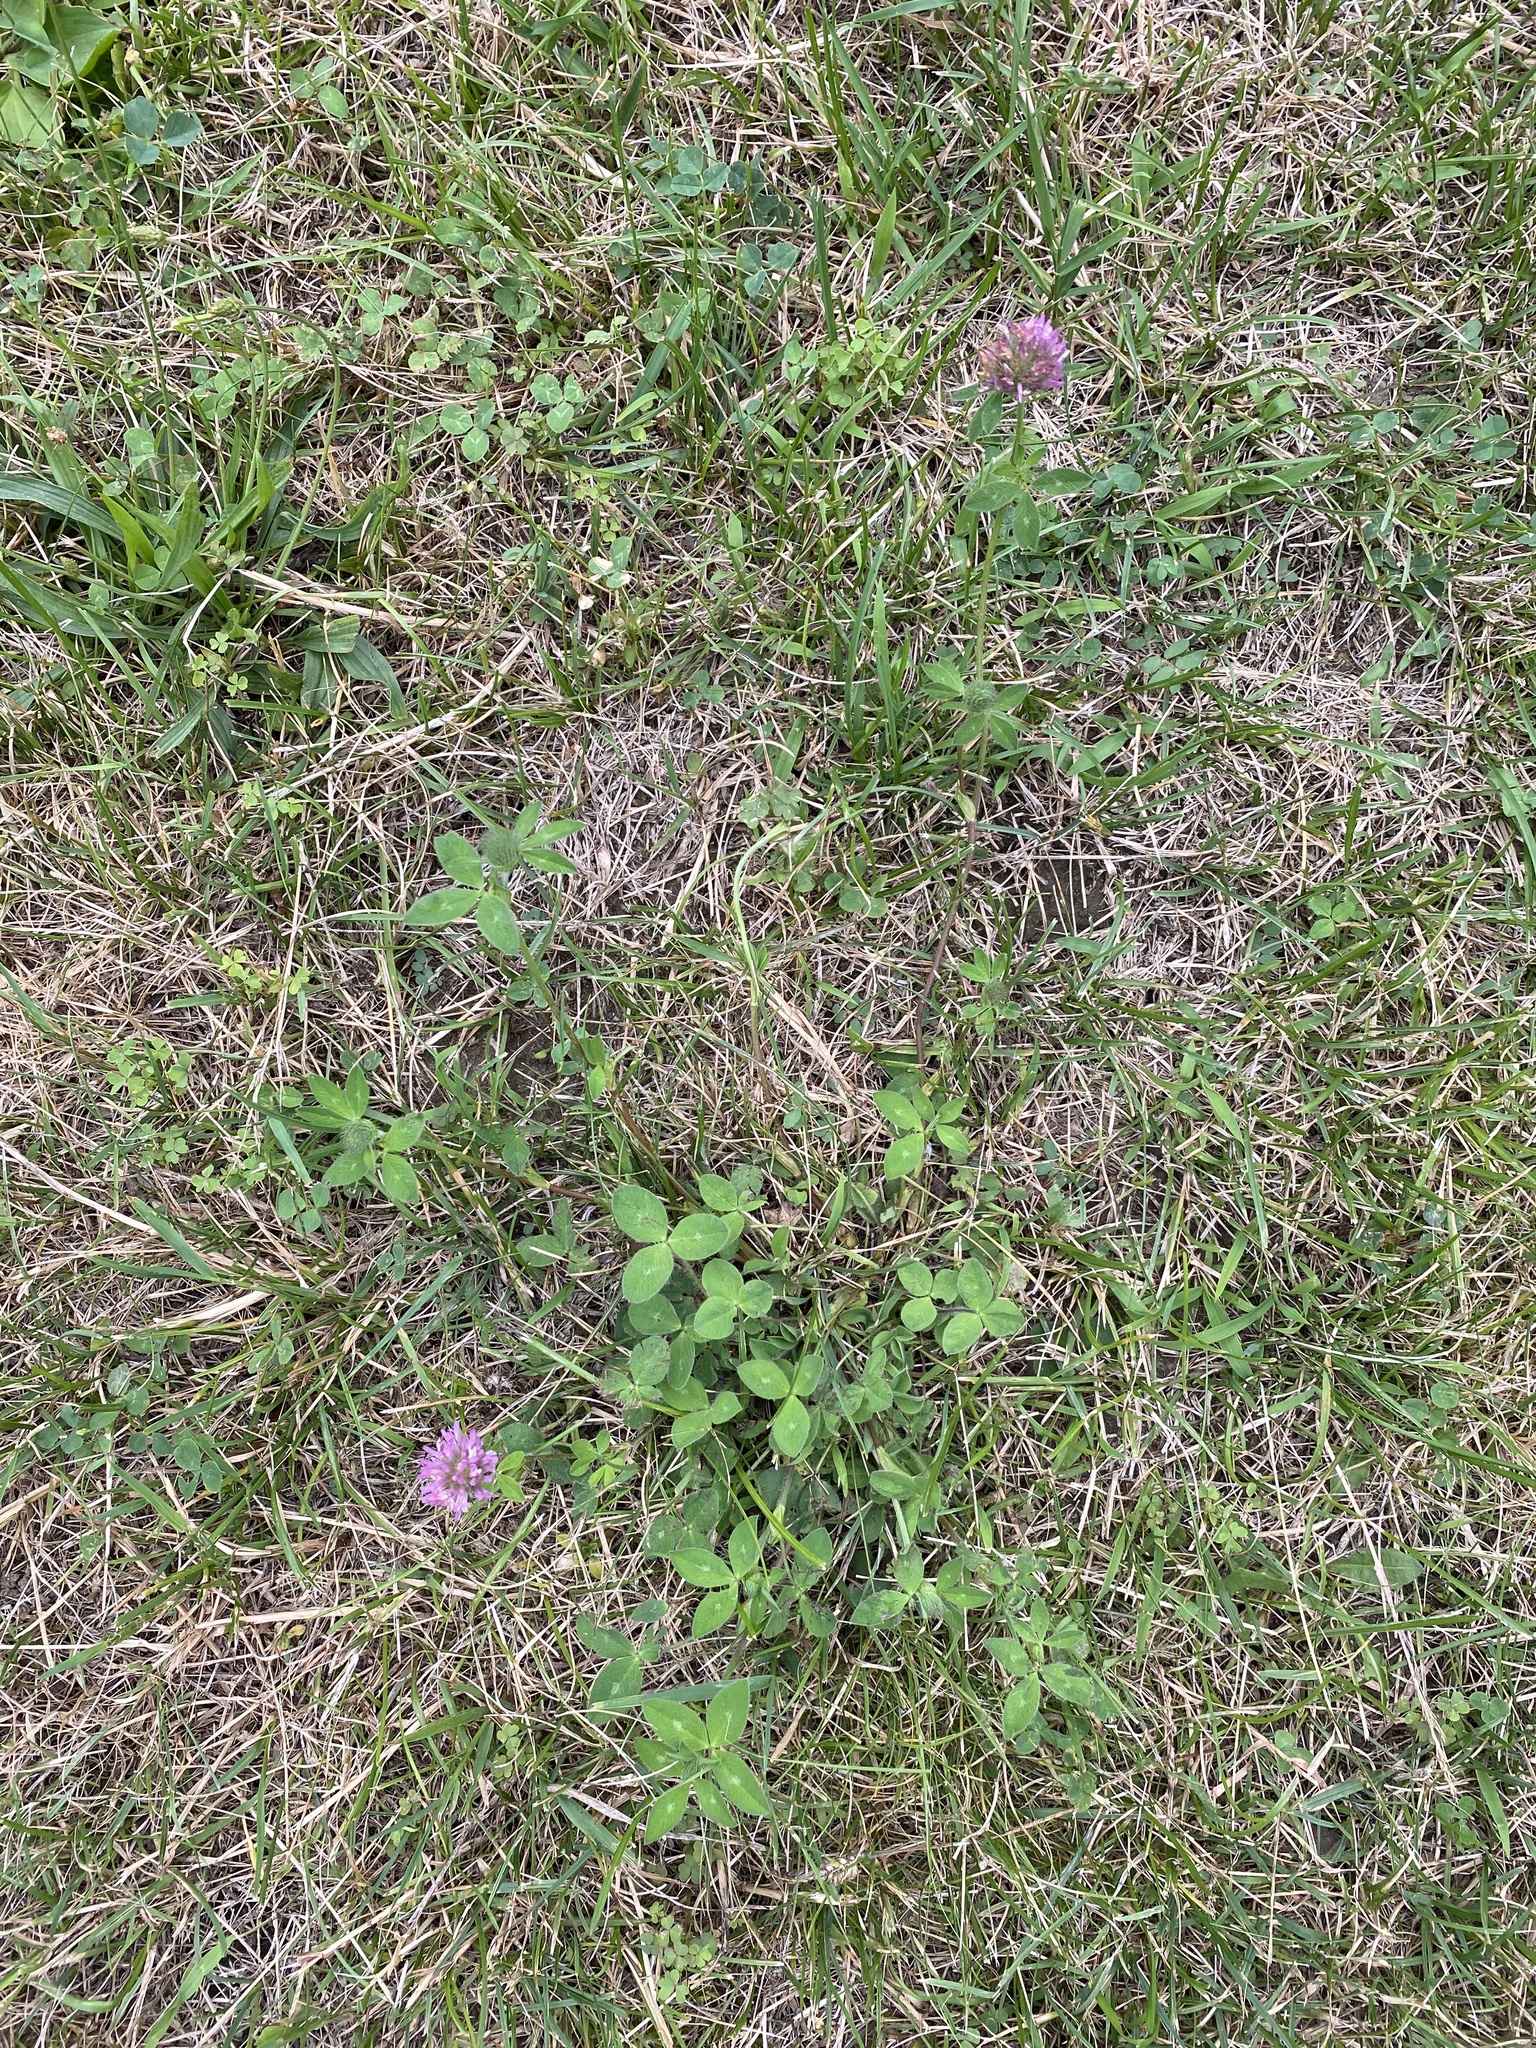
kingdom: Plantae
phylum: Tracheophyta
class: Magnoliopsida
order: Fabales
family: Fabaceae
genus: Trifolium
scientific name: Trifolium pratense
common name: Red clover
